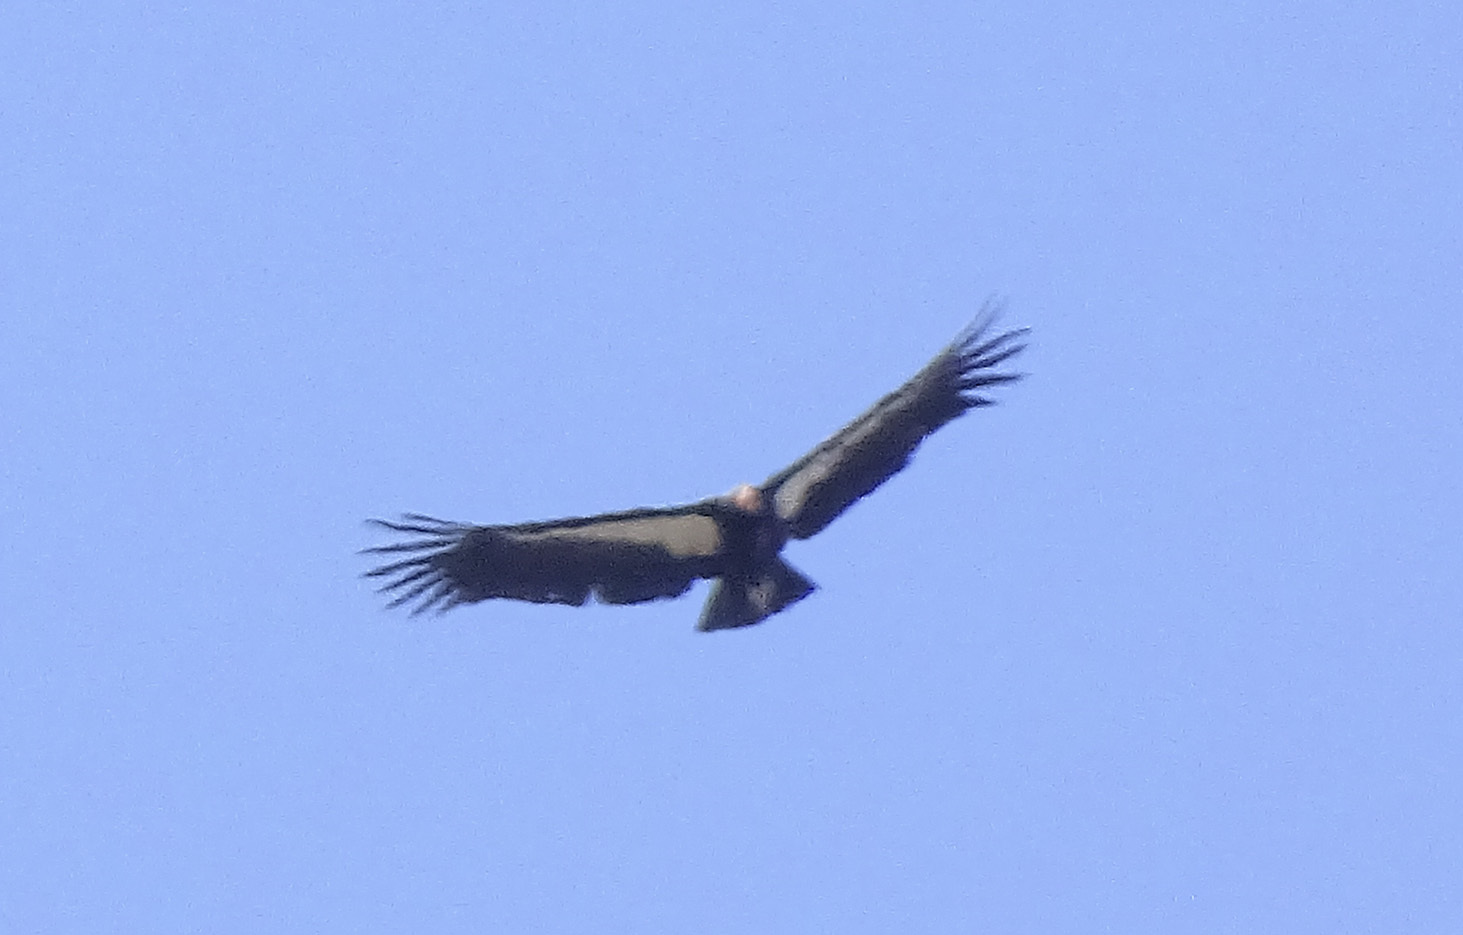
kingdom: Animalia
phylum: Chordata
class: Aves
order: Accipitriformes
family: Cathartidae
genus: Gymnogyps
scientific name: Gymnogyps californianus
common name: California condor
